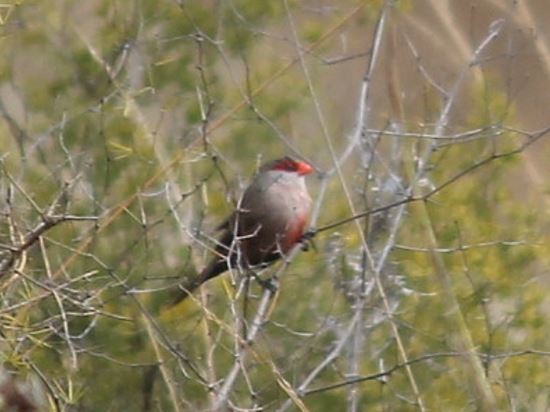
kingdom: Animalia
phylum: Chordata
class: Aves
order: Passeriformes
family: Estrildidae
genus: Estrilda
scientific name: Estrilda astrild
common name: Common waxbill
